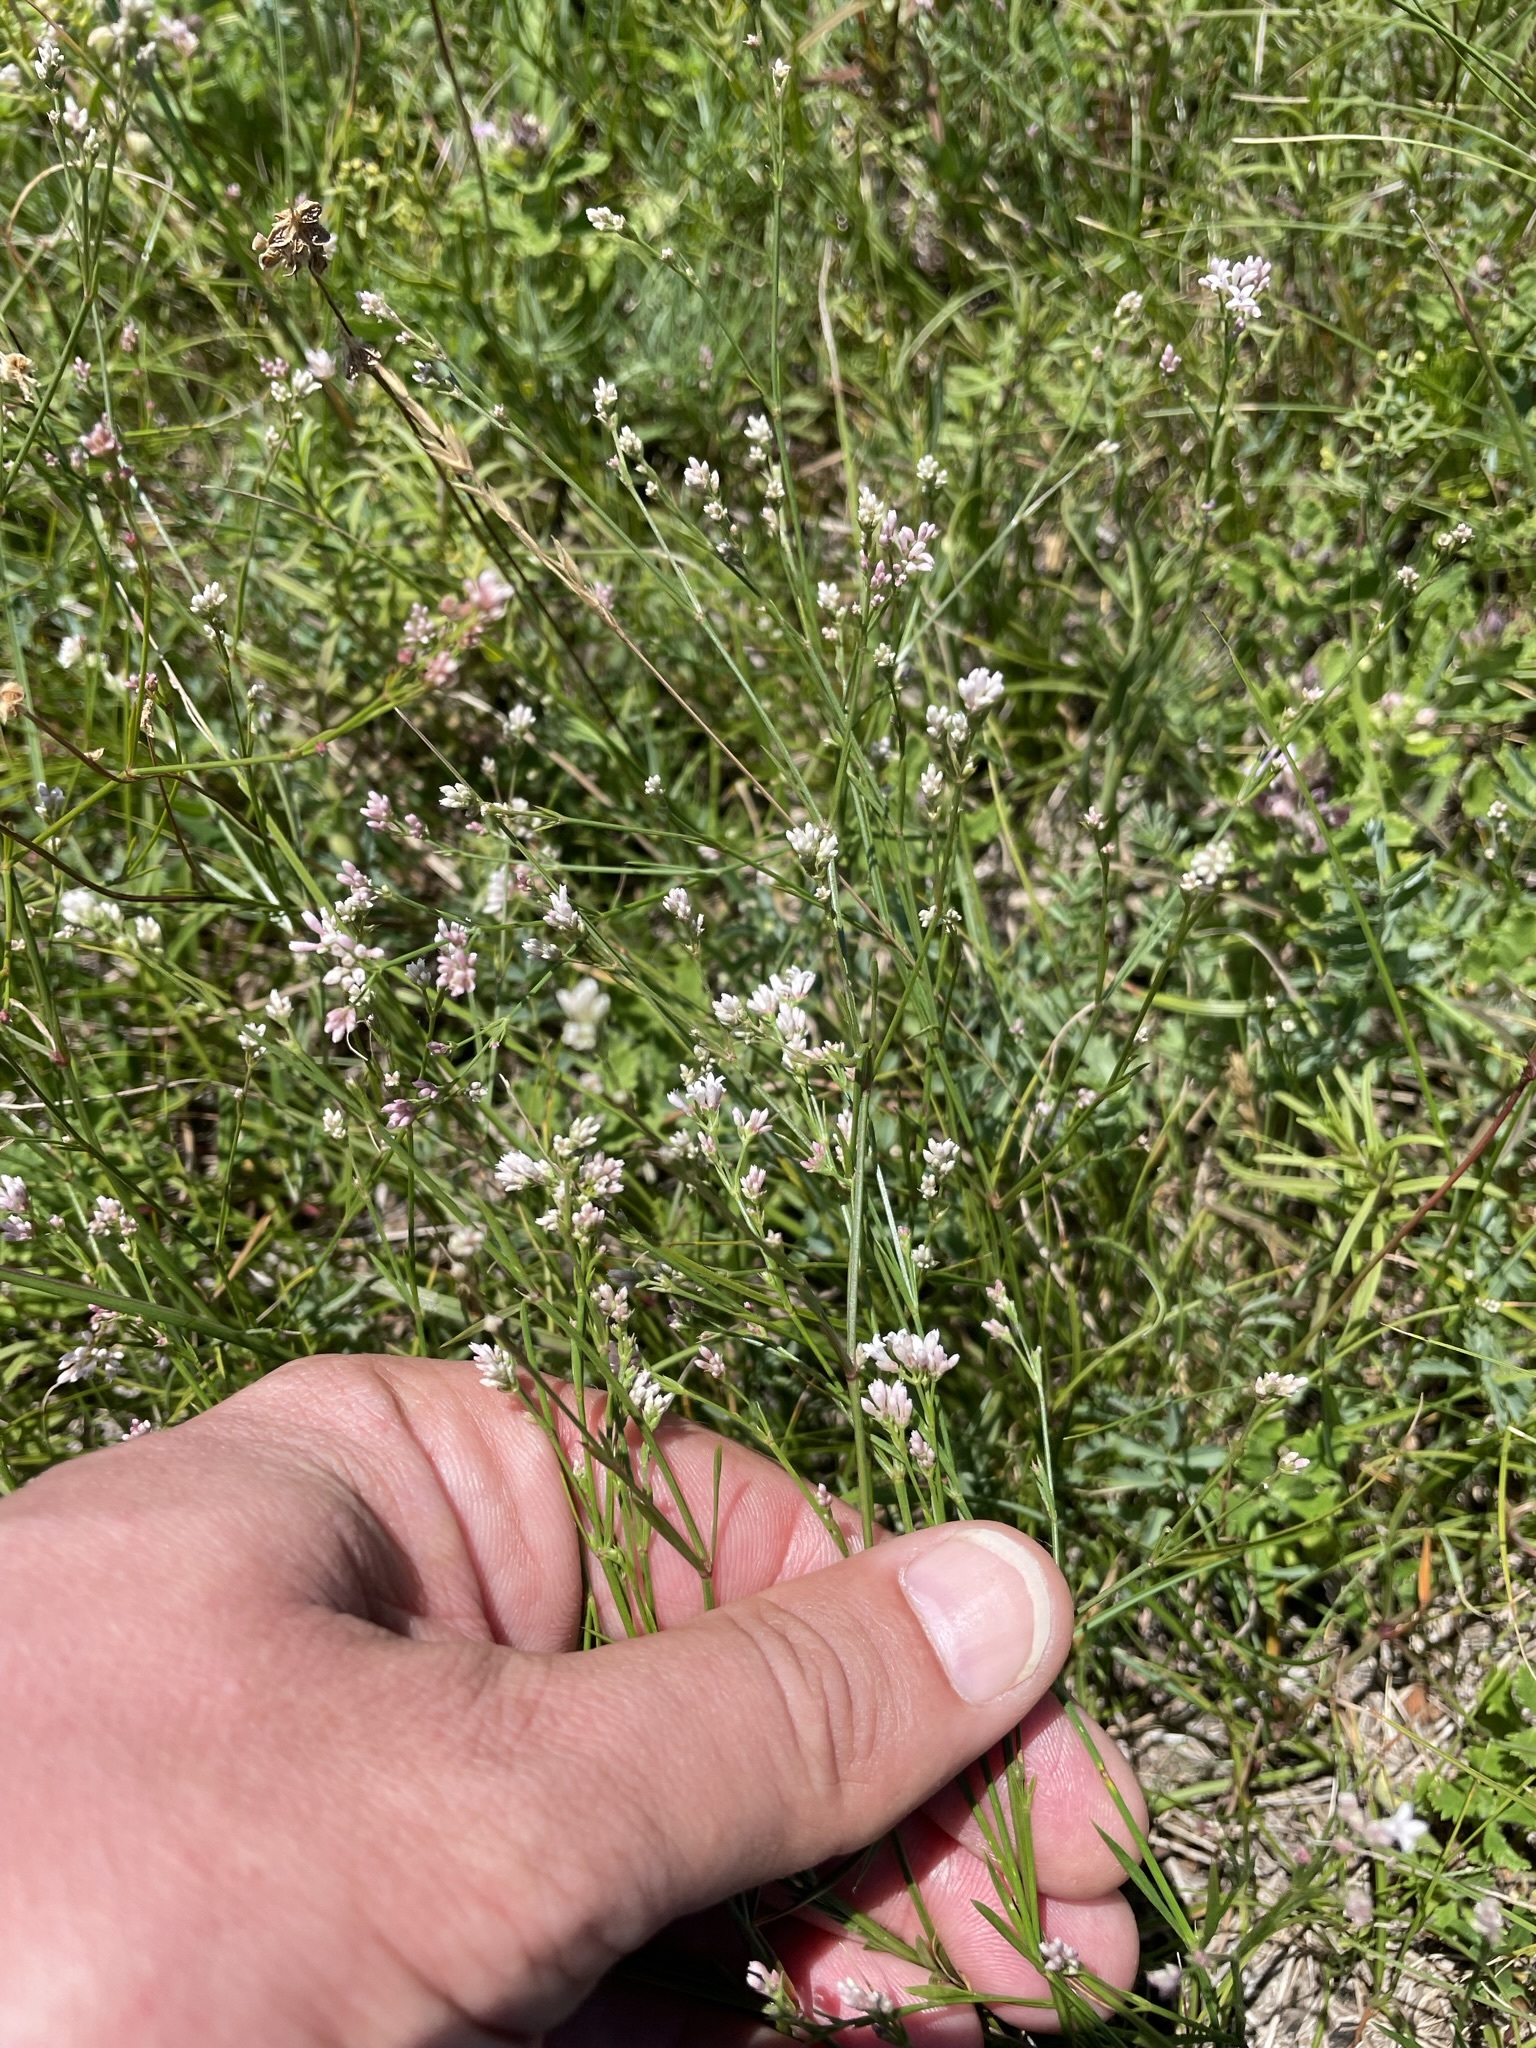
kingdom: Plantae
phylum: Tracheophyta
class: Magnoliopsida
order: Gentianales
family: Rubiaceae
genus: Cynanchica
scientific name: Cynanchica pyrenaica
